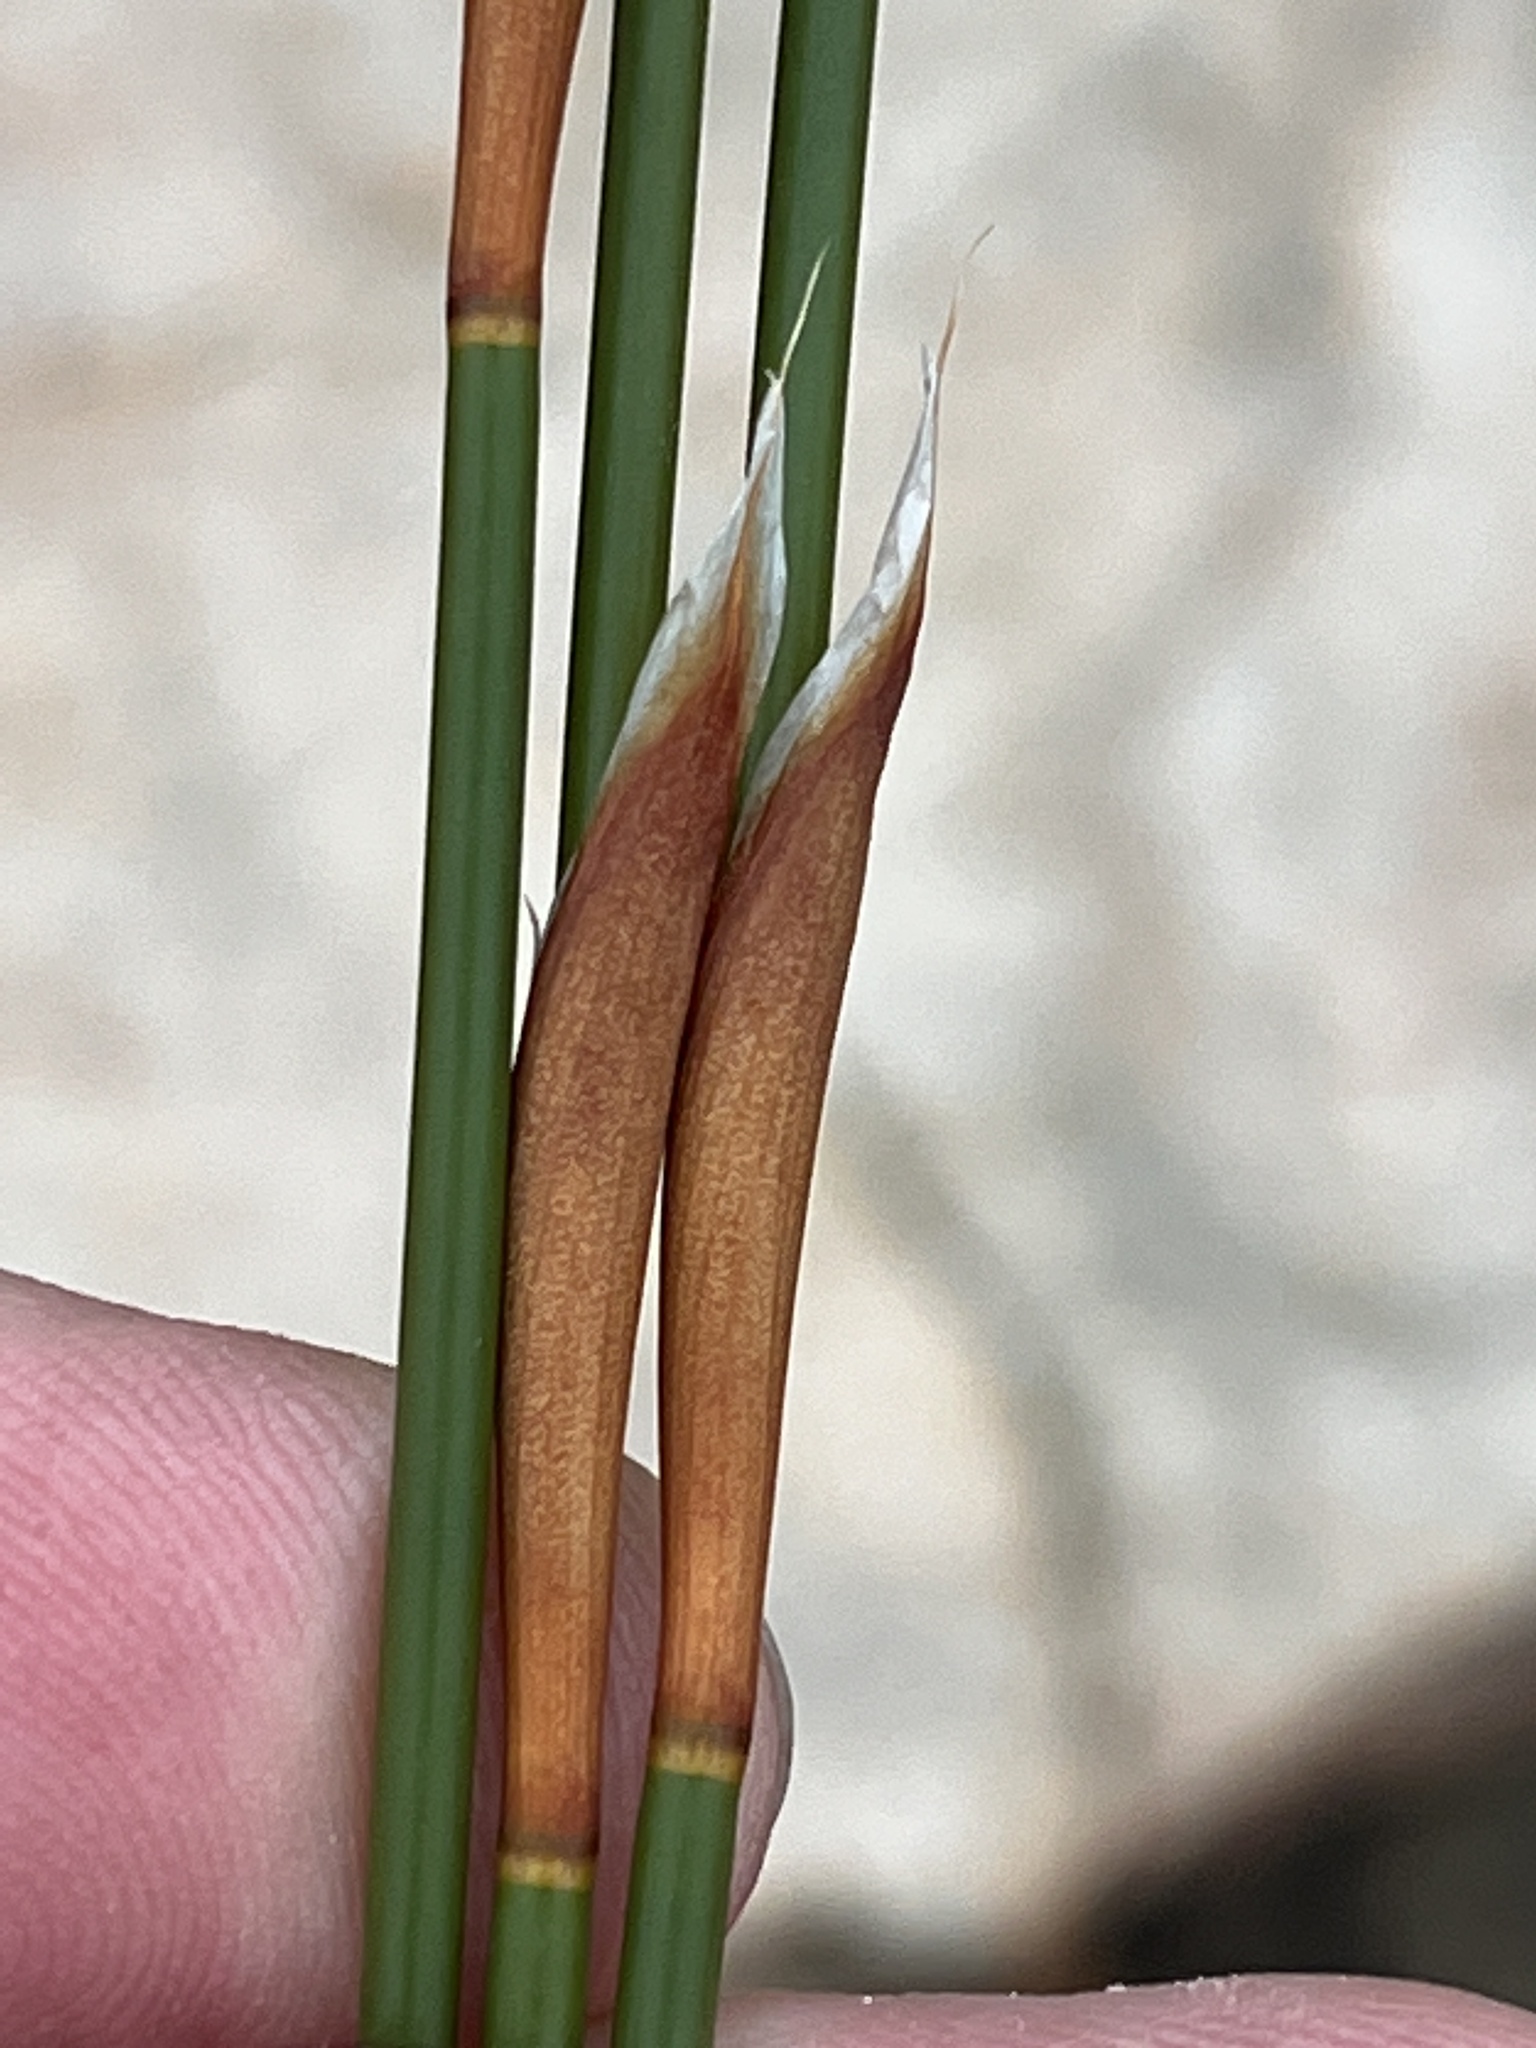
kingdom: Plantae
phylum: Tracheophyta
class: Liliopsida
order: Poales
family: Restionaceae
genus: Willdenowia
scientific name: Willdenowia teres
